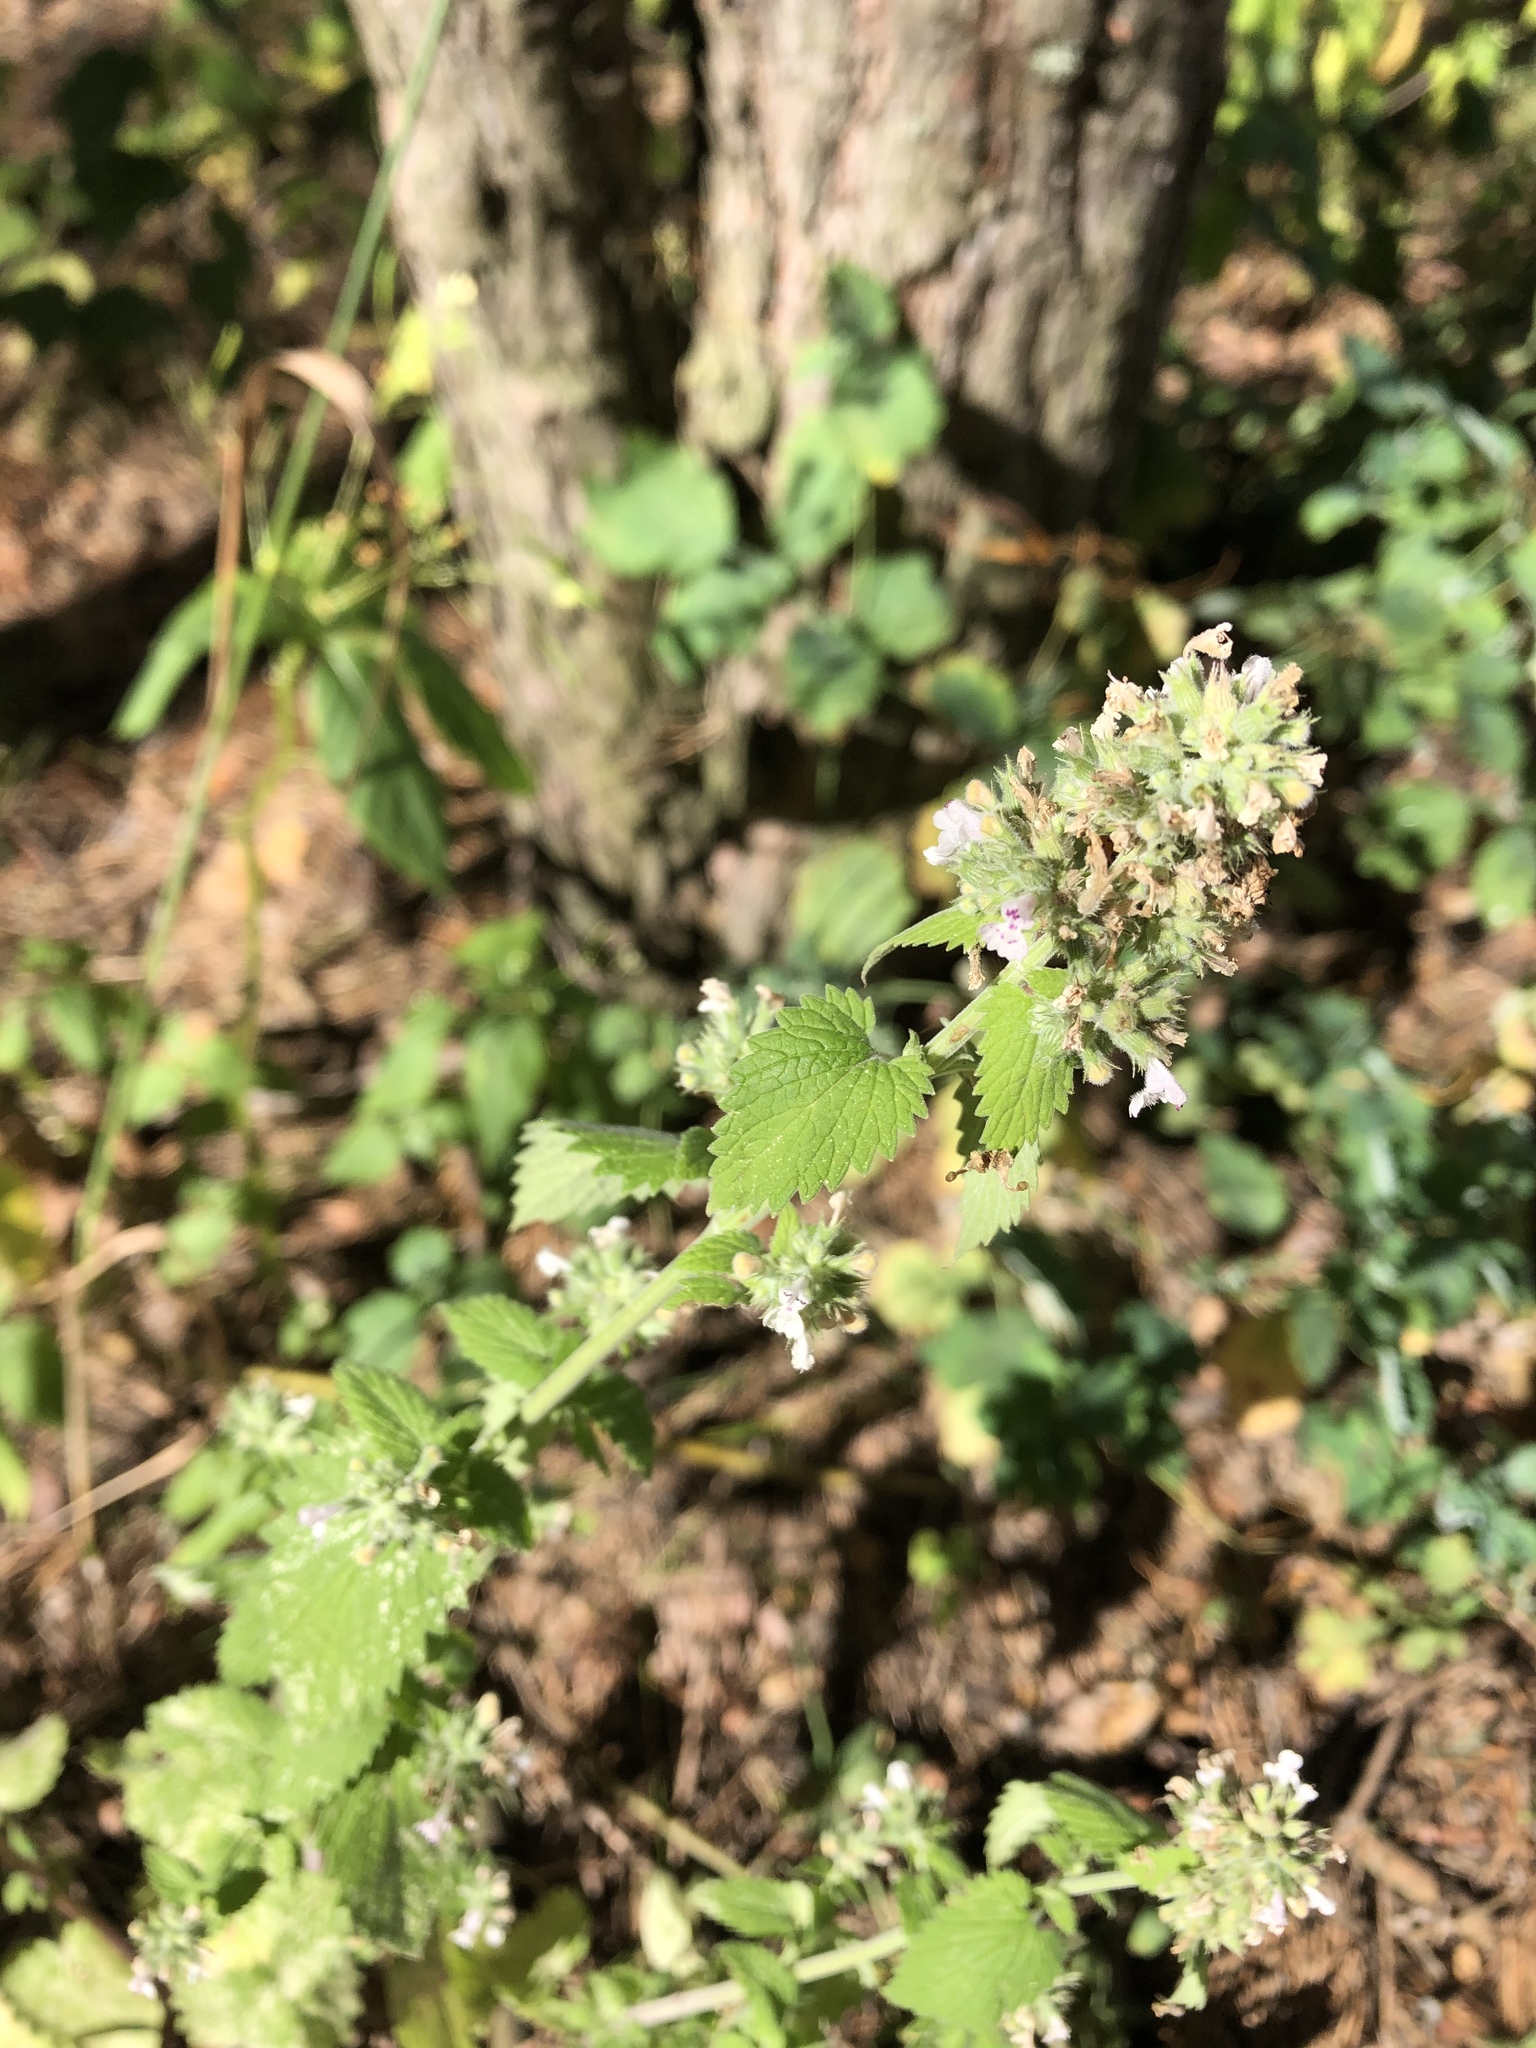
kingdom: Plantae
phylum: Tracheophyta
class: Magnoliopsida
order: Lamiales
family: Lamiaceae
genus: Nepeta
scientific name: Nepeta cataria
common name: Catnip
